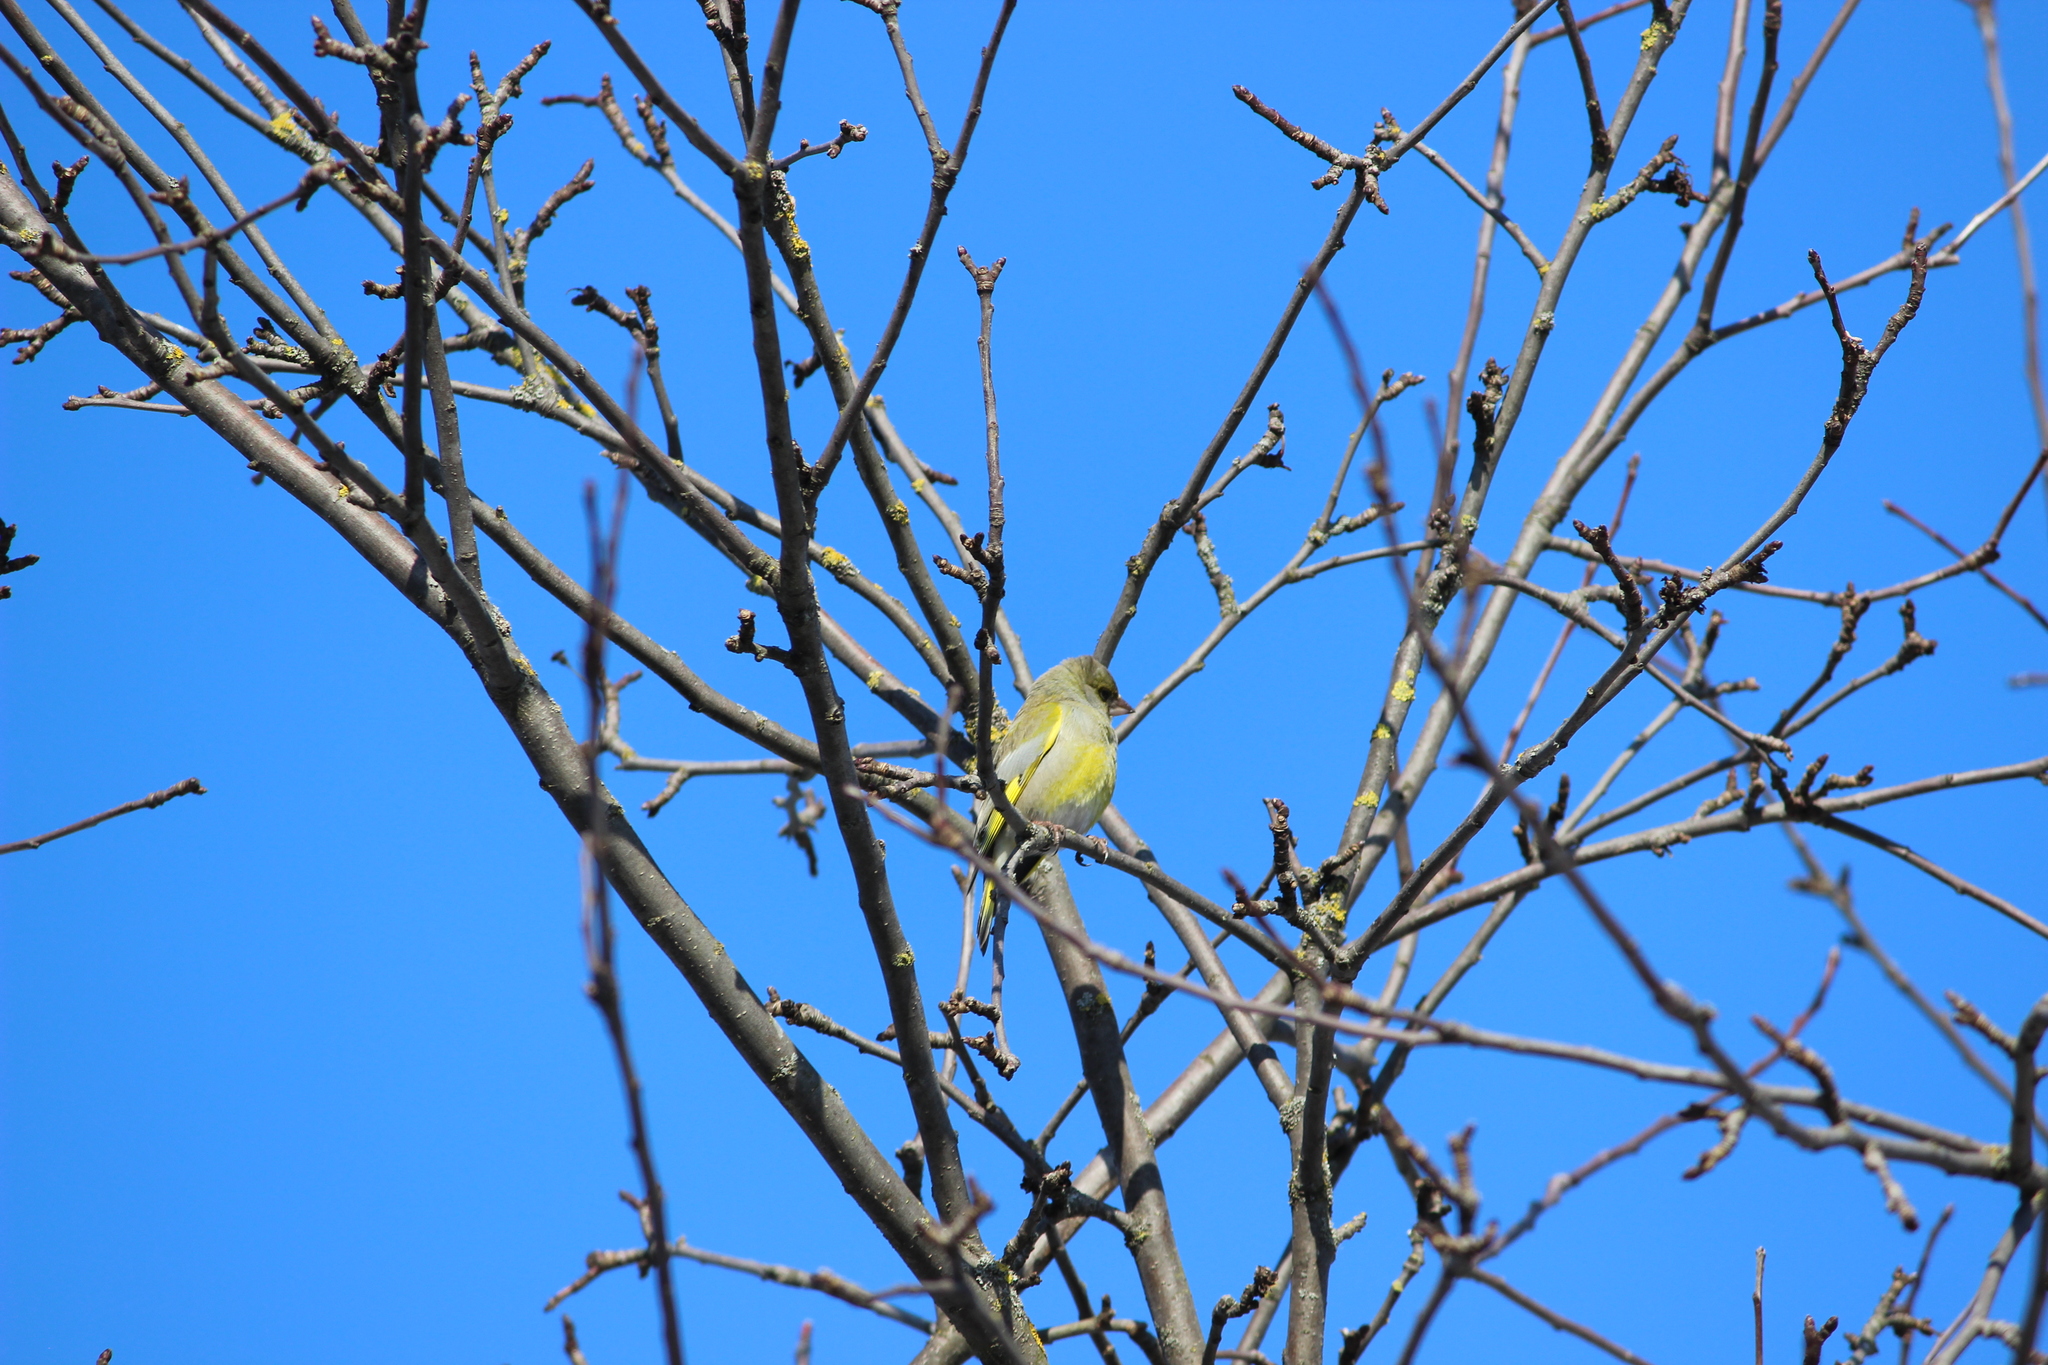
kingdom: Plantae
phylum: Tracheophyta
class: Liliopsida
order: Poales
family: Poaceae
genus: Chloris
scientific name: Chloris chloris
